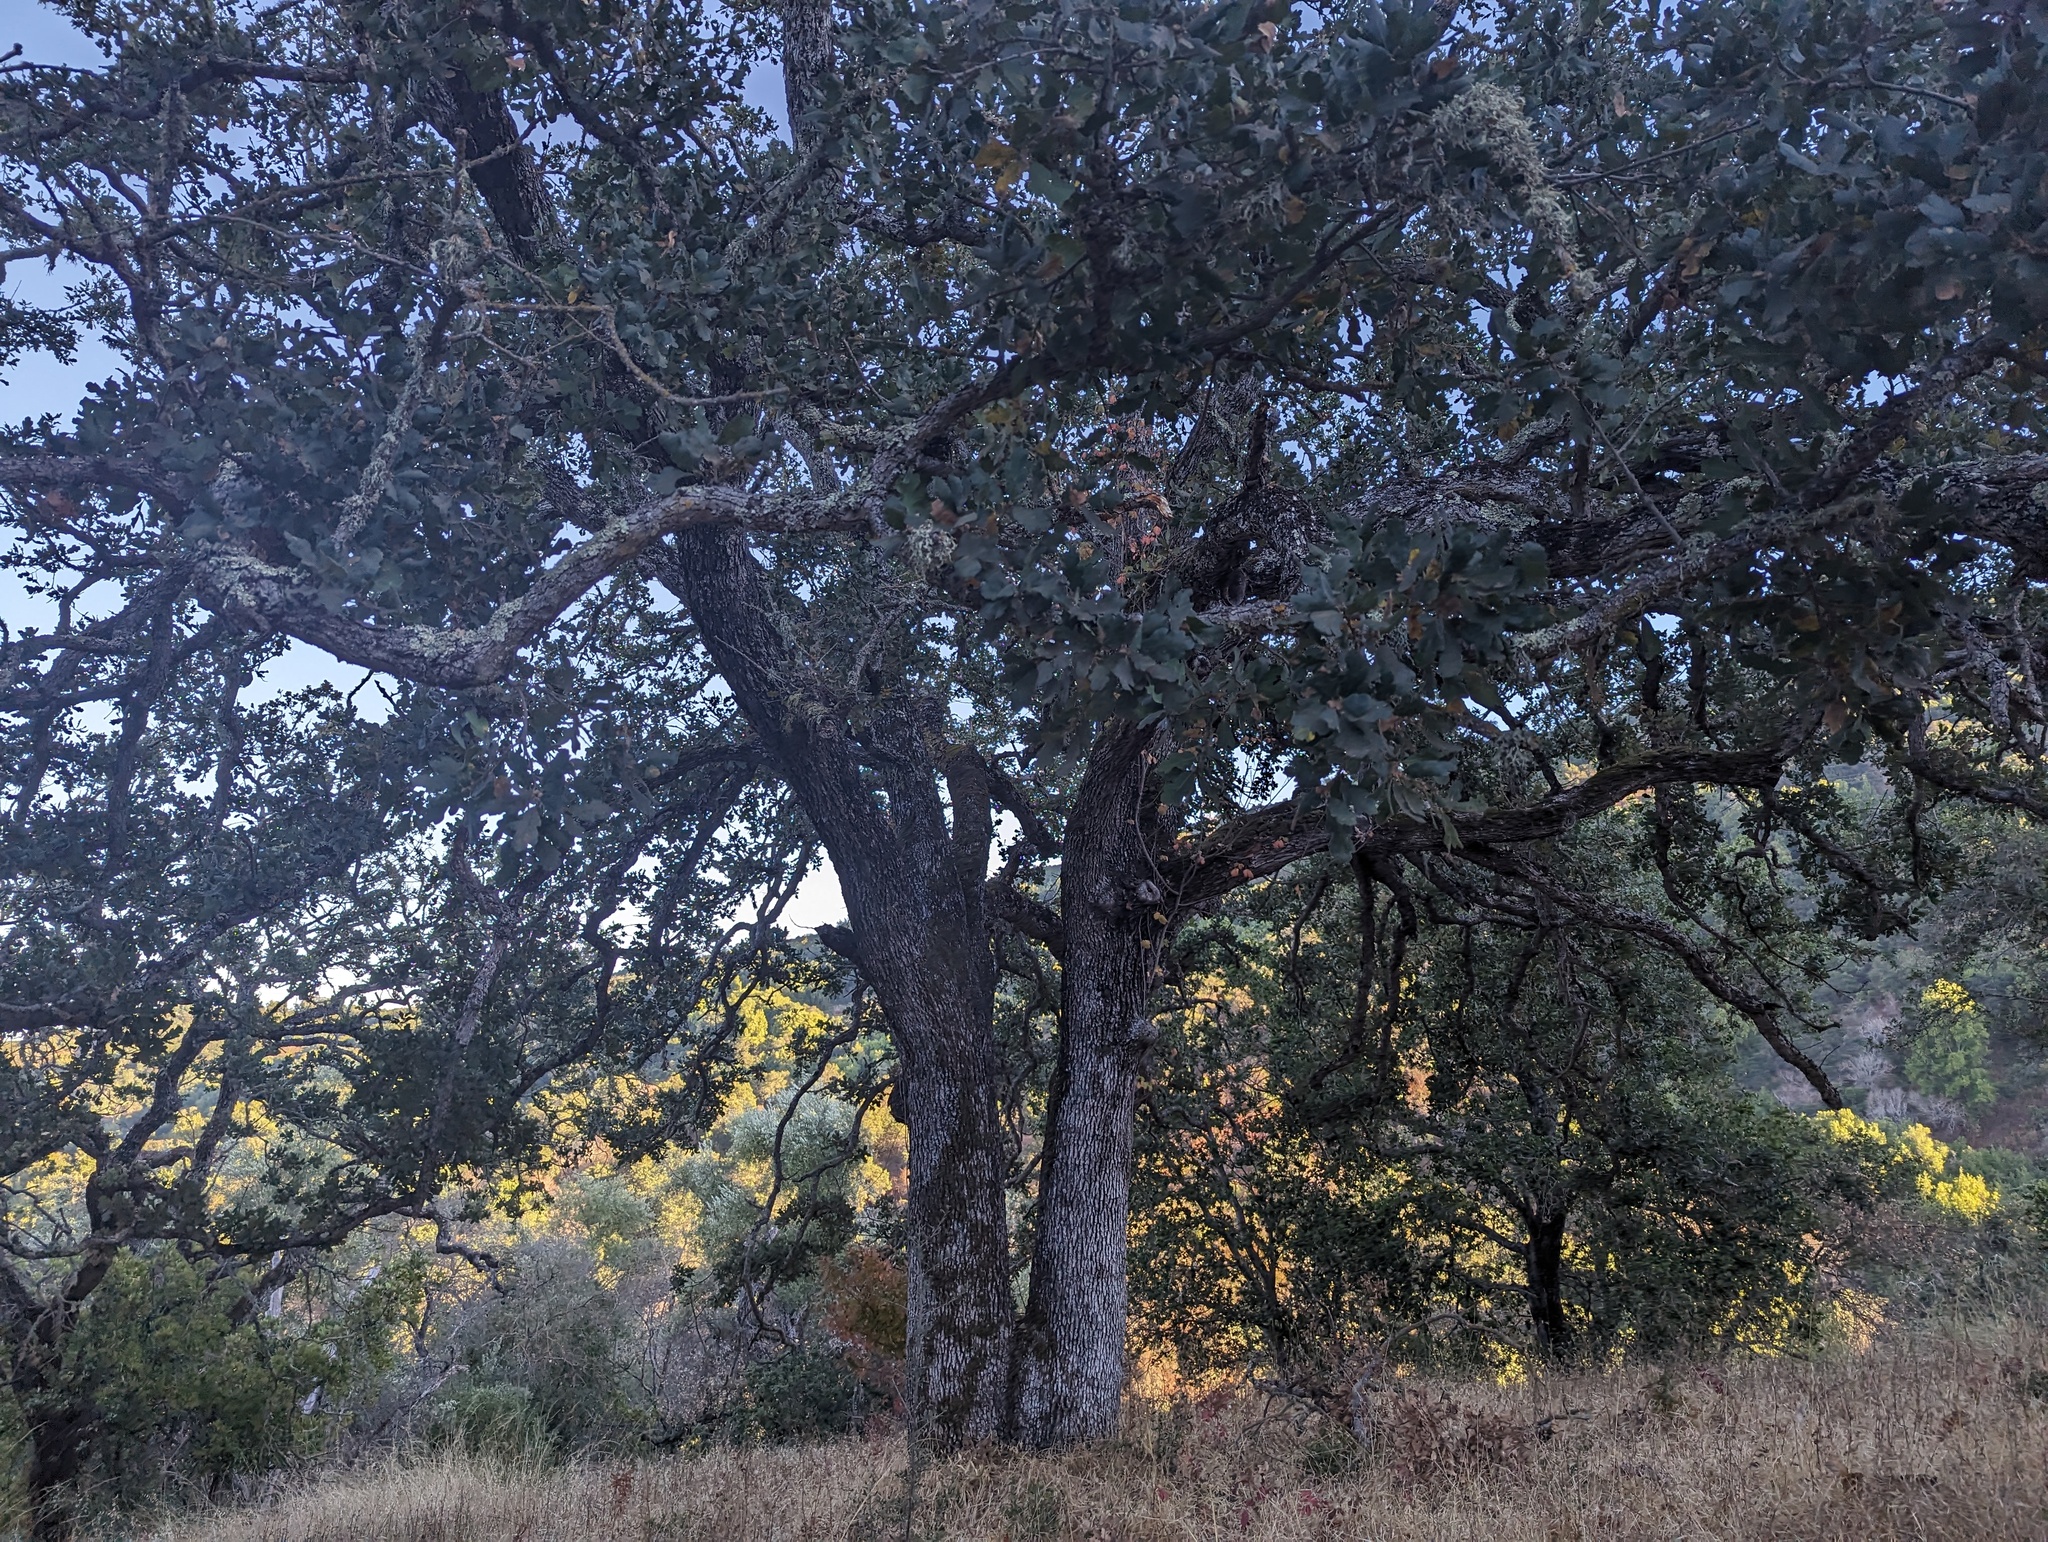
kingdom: Plantae
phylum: Tracheophyta
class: Magnoliopsida
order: Fagales
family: Fagaceae
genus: Quercus
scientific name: Quercus douglasii
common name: Blue oak
